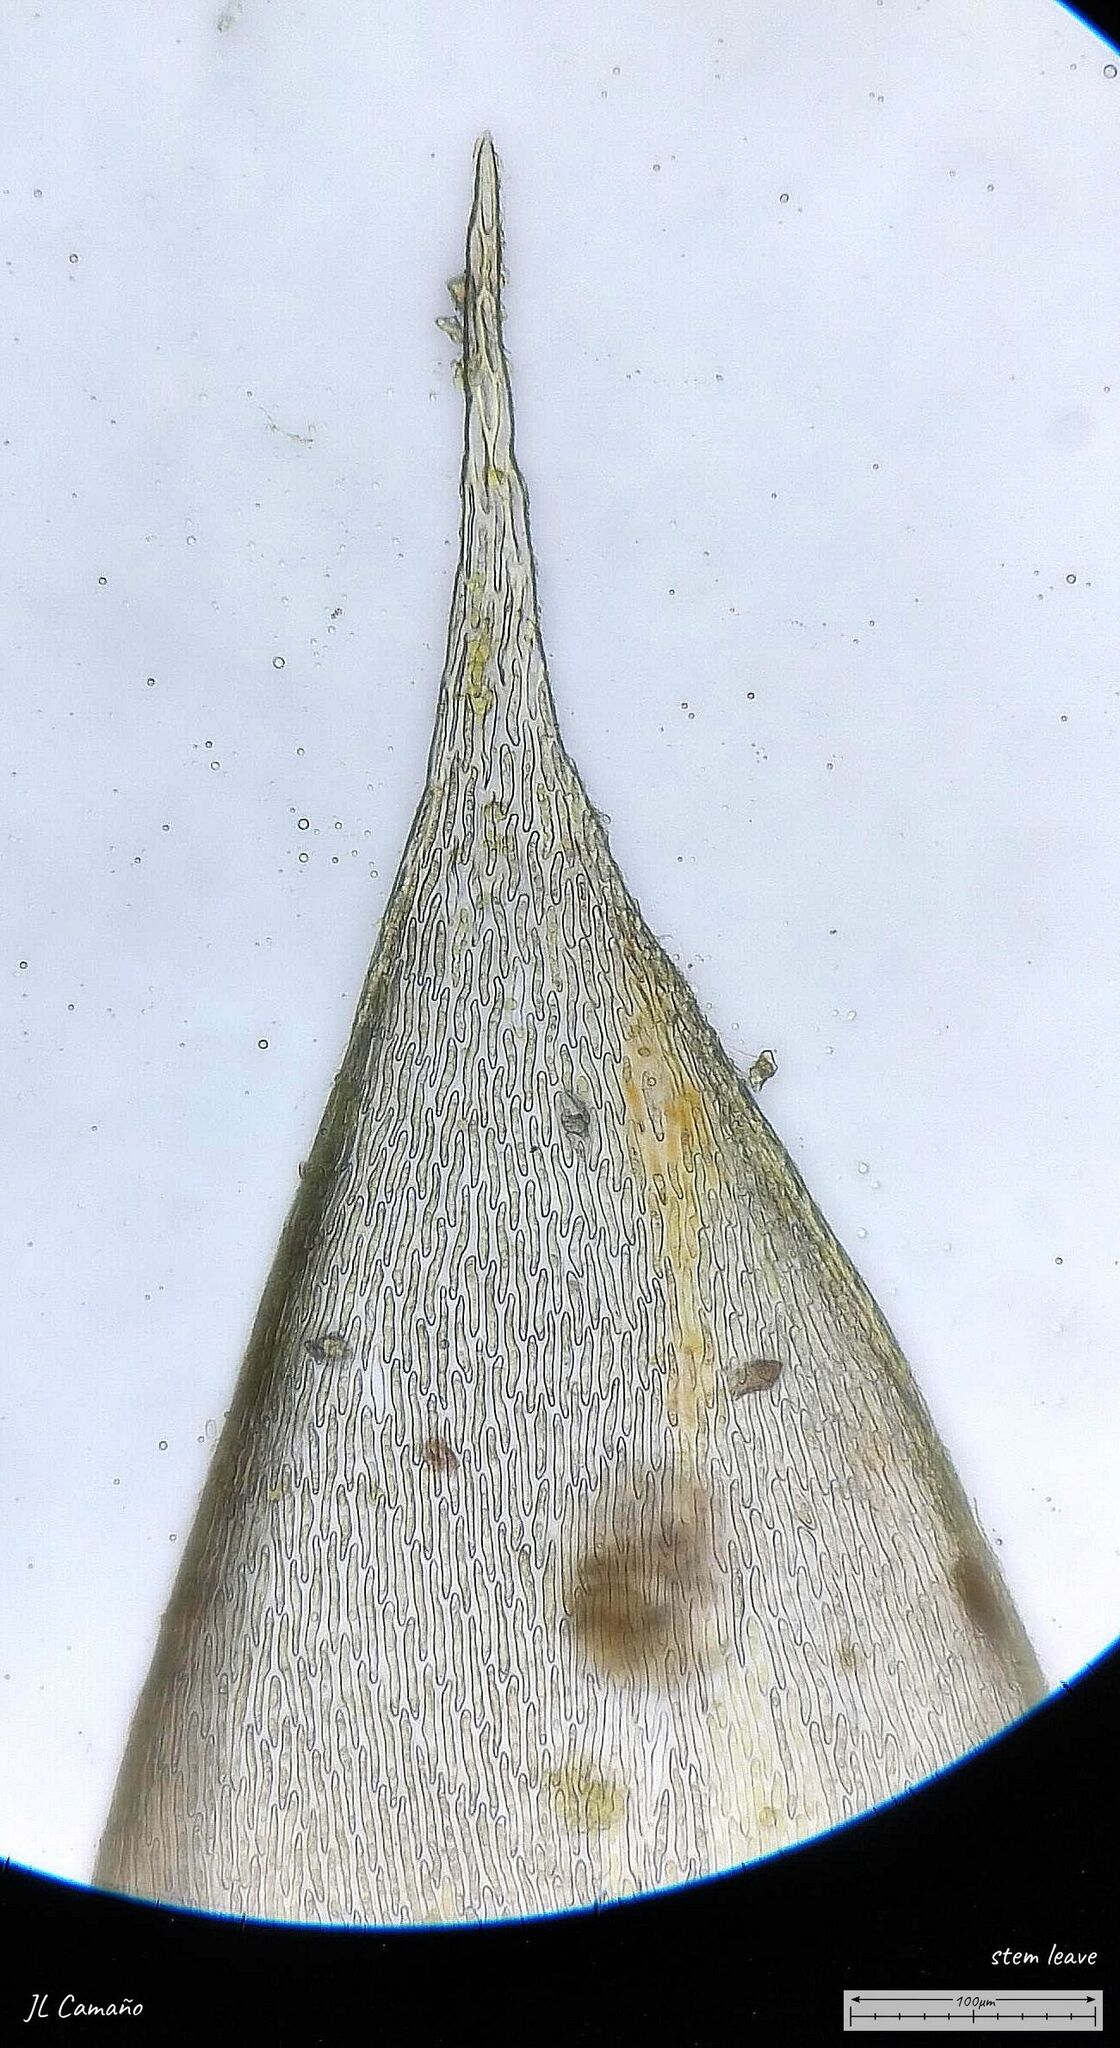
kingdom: Plantae
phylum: Bryophyta
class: Bryopsida
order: Hypnales
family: Lembophyllaceae
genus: Isothecium
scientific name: Isothecium alopecuroides
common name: Larger mouse-tail moss
